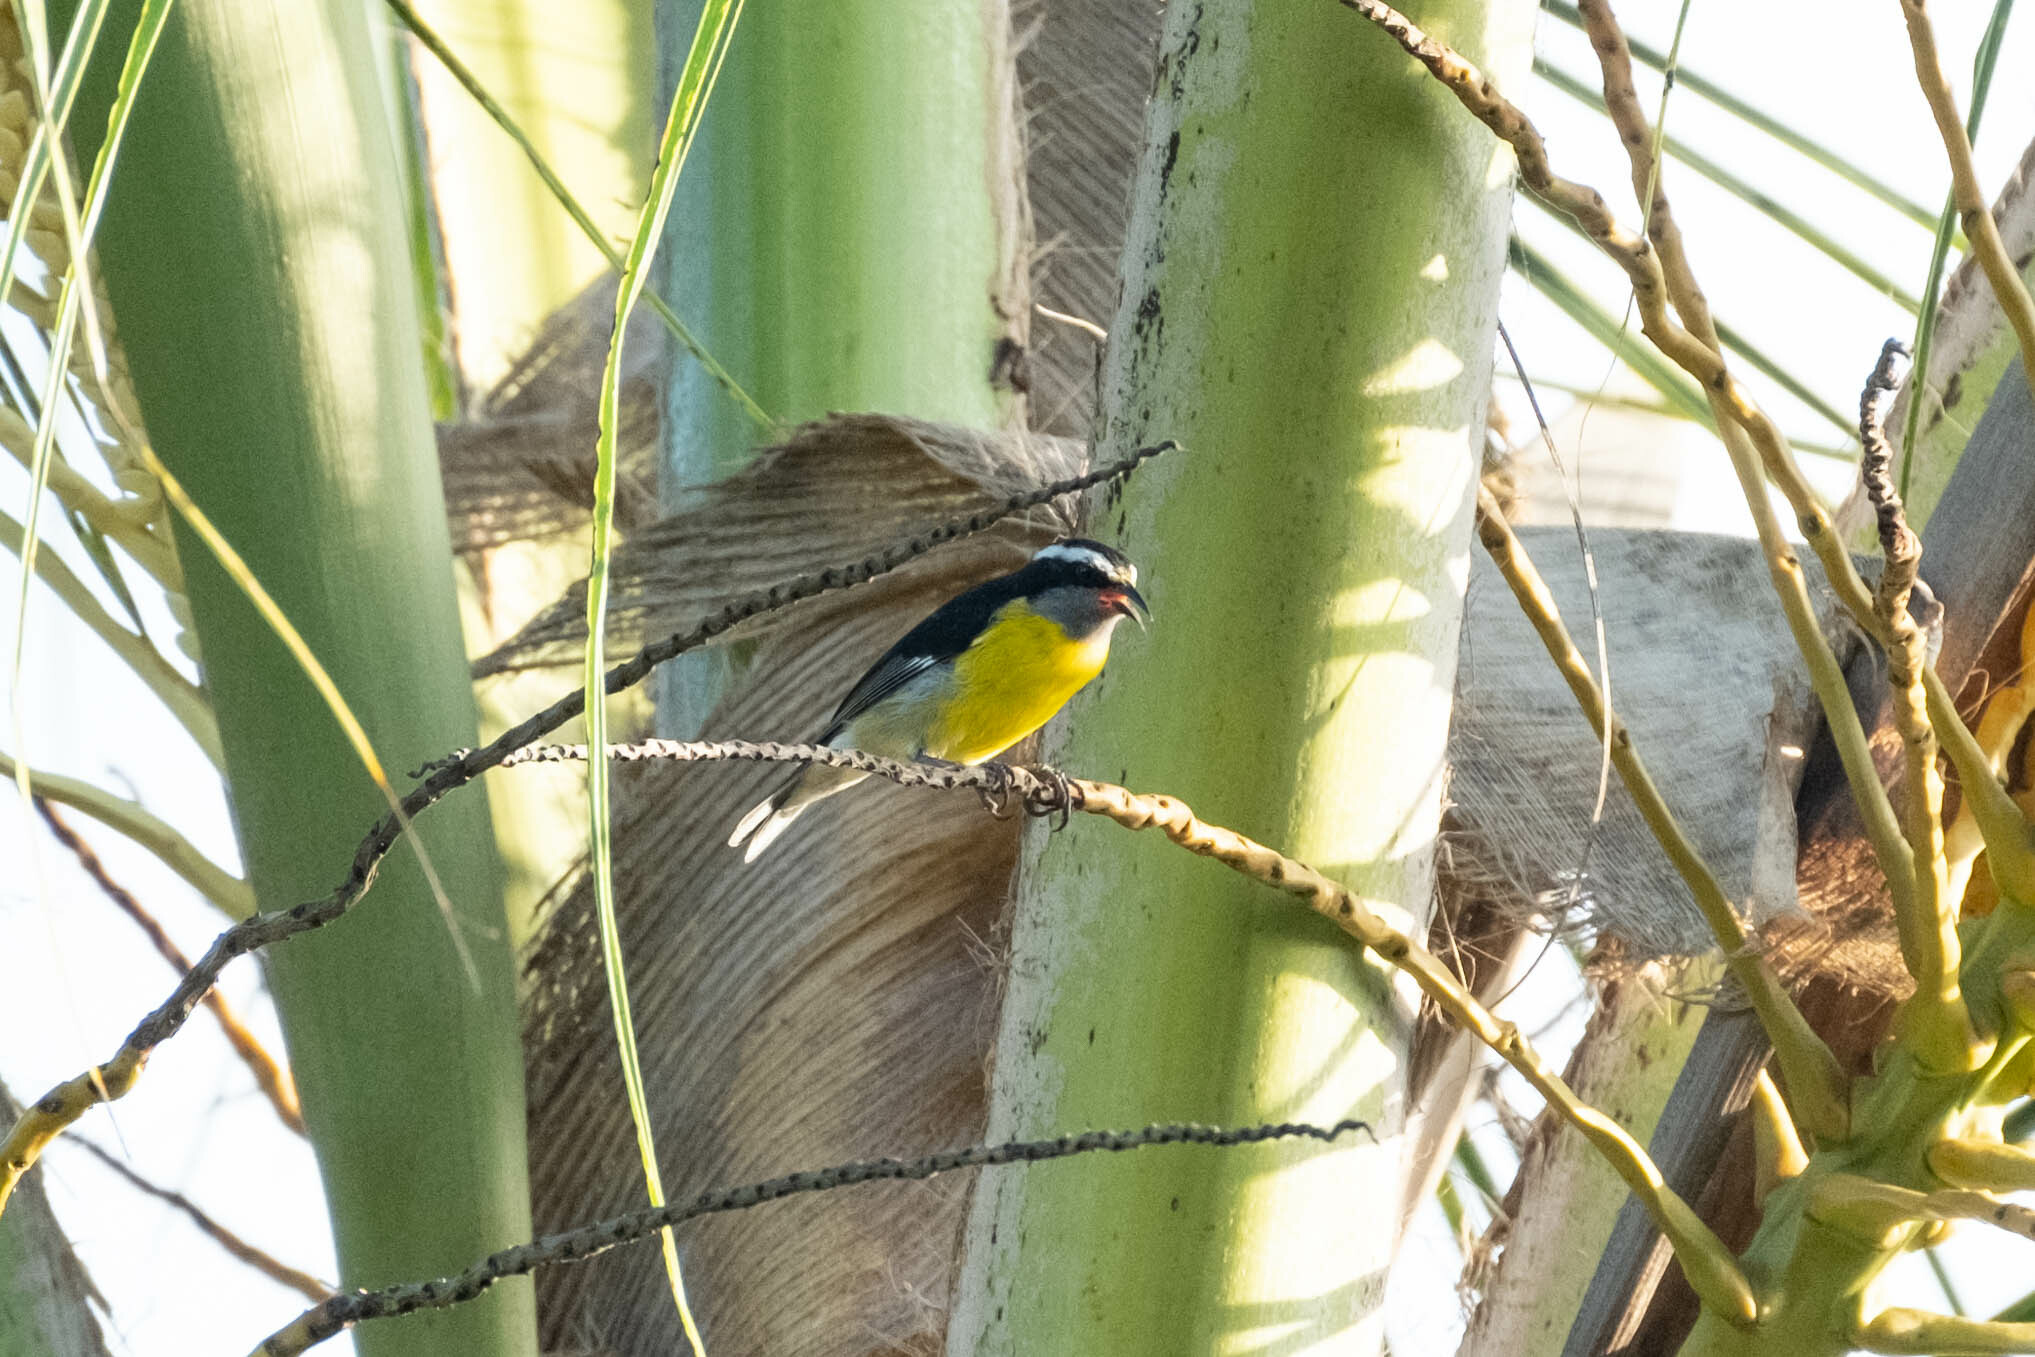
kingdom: Animalia
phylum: Chordata
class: Aves
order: Passeriformes
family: Thraupidae
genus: Coereba
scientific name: Coereba flaveola
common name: Bananaquit
